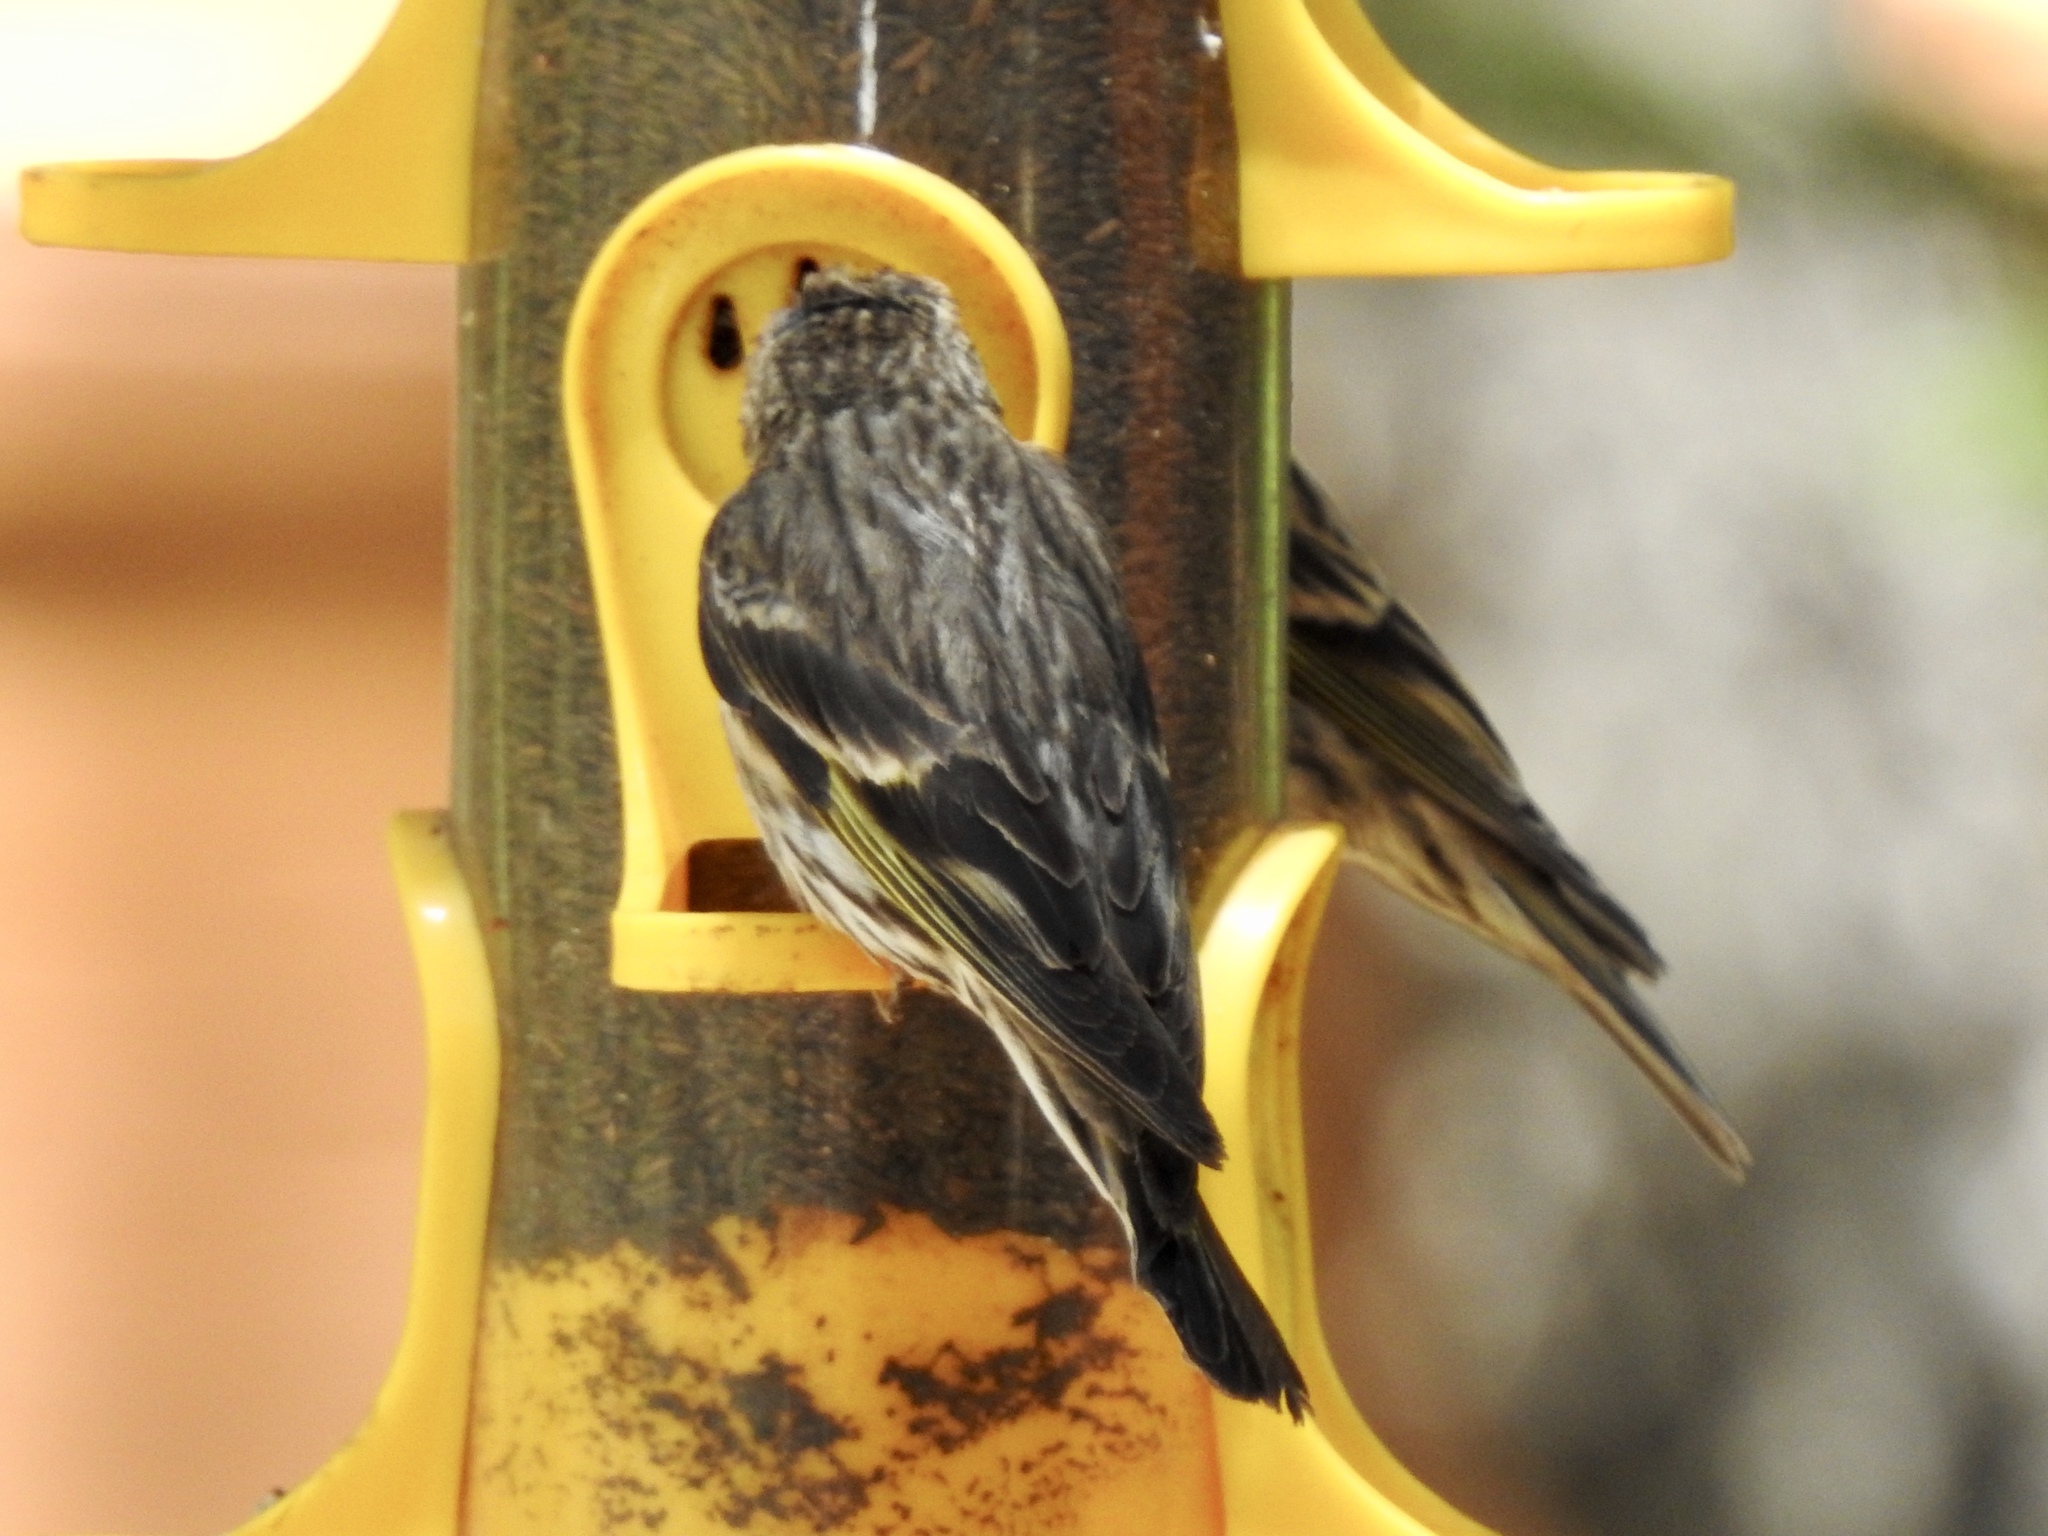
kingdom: Animalia
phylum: Chordata
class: Aves
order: Passeriformes
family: Fringillidae
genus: Spinus
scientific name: Spinus pinus
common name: Pine siskin
